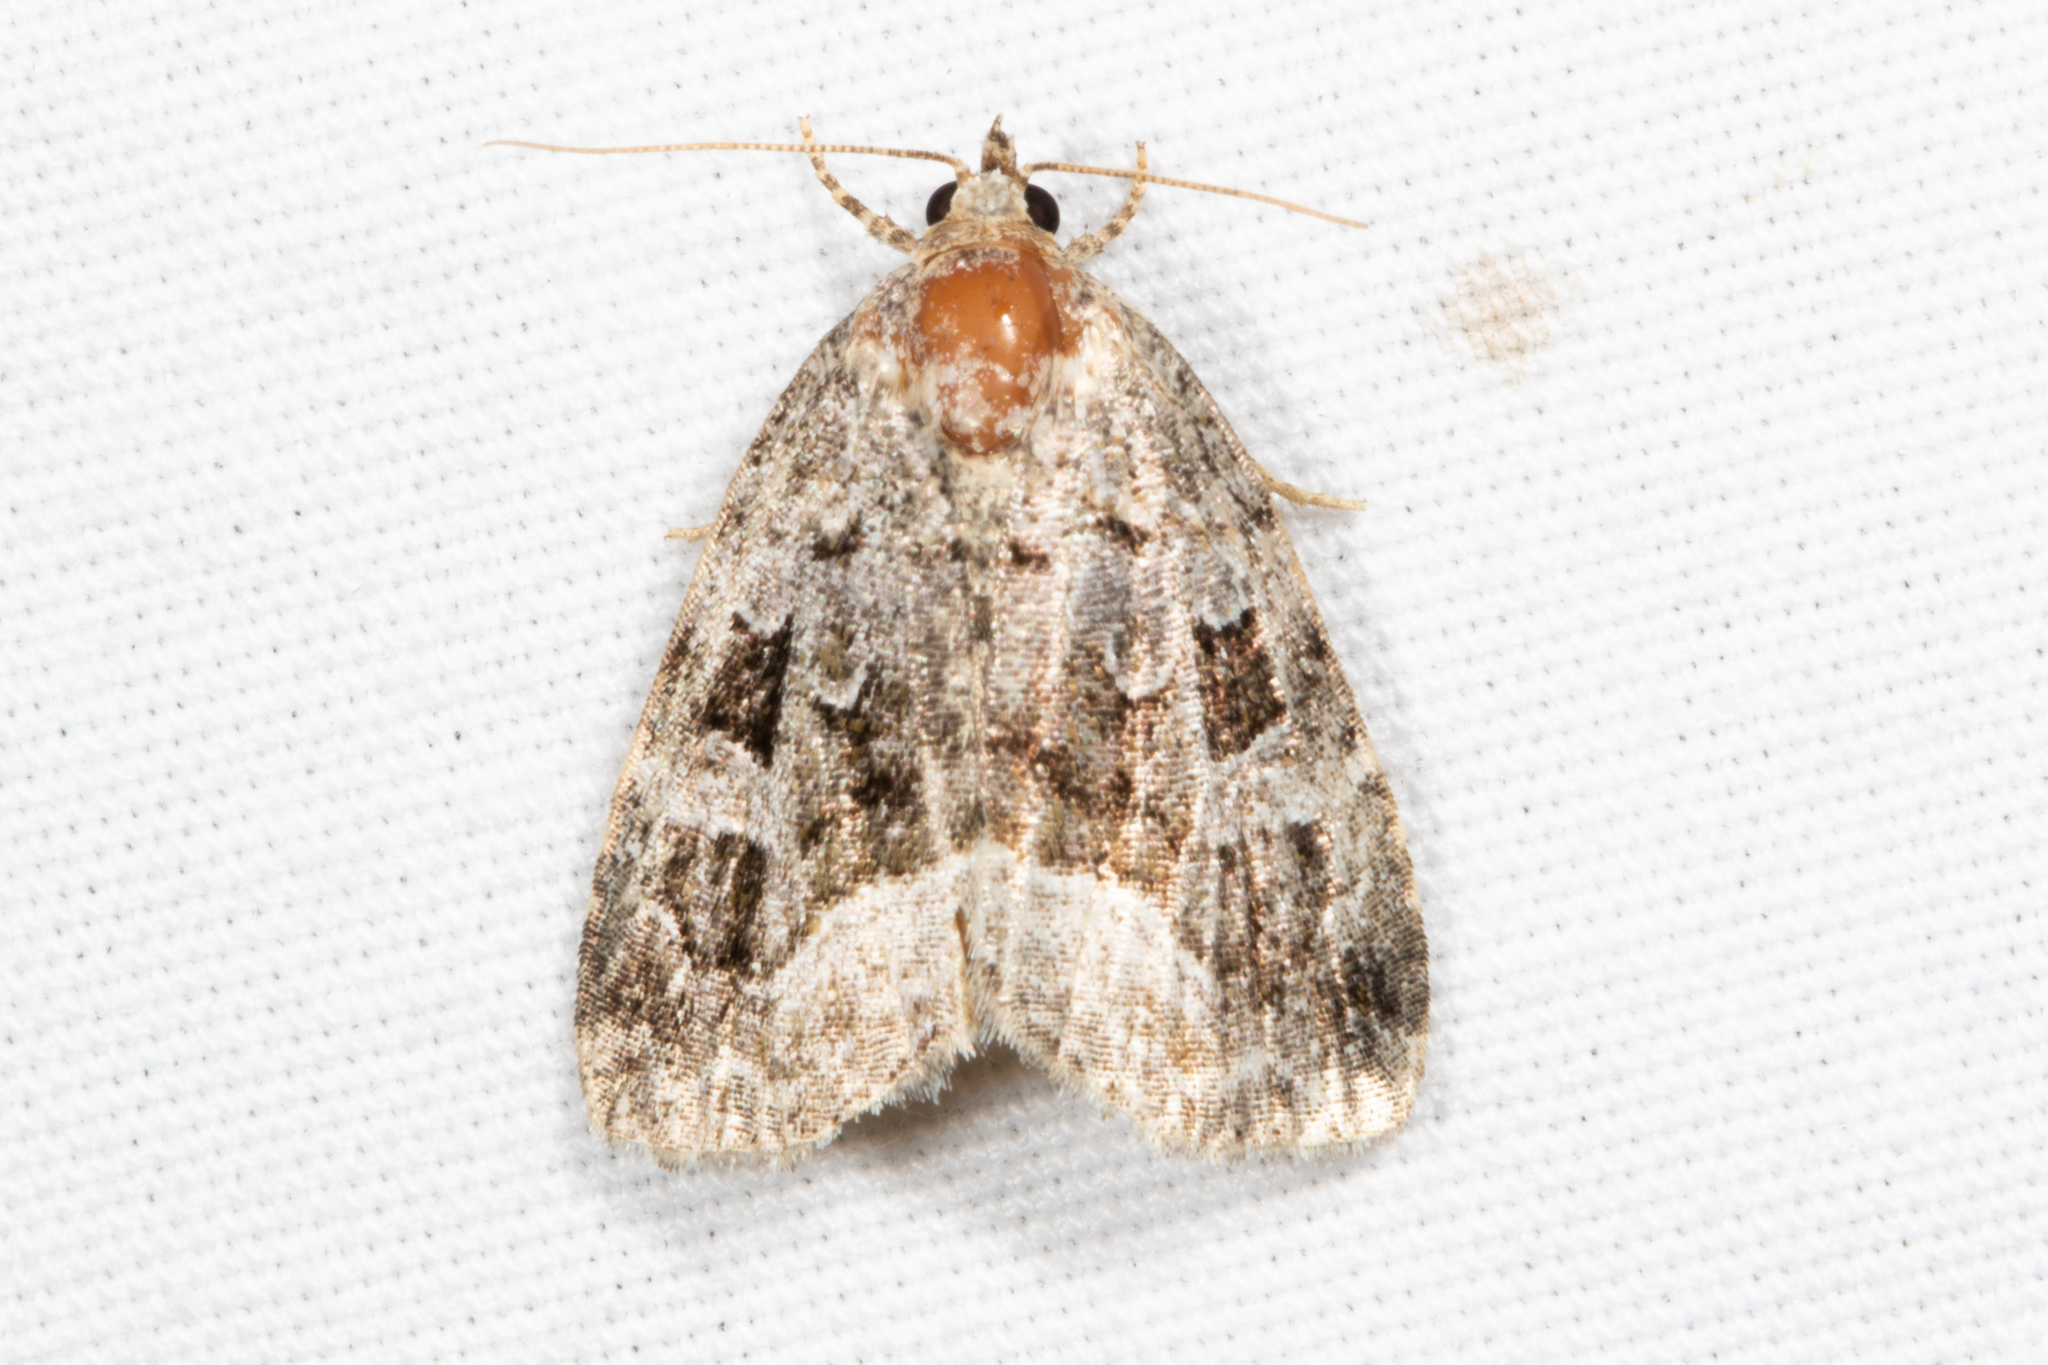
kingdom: Animalia
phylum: Arthropoda
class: Insecta
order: Lepidoptera
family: Noctuidae
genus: Protodeltote
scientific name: Protodeltote muscosula
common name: Large mossy glyph
